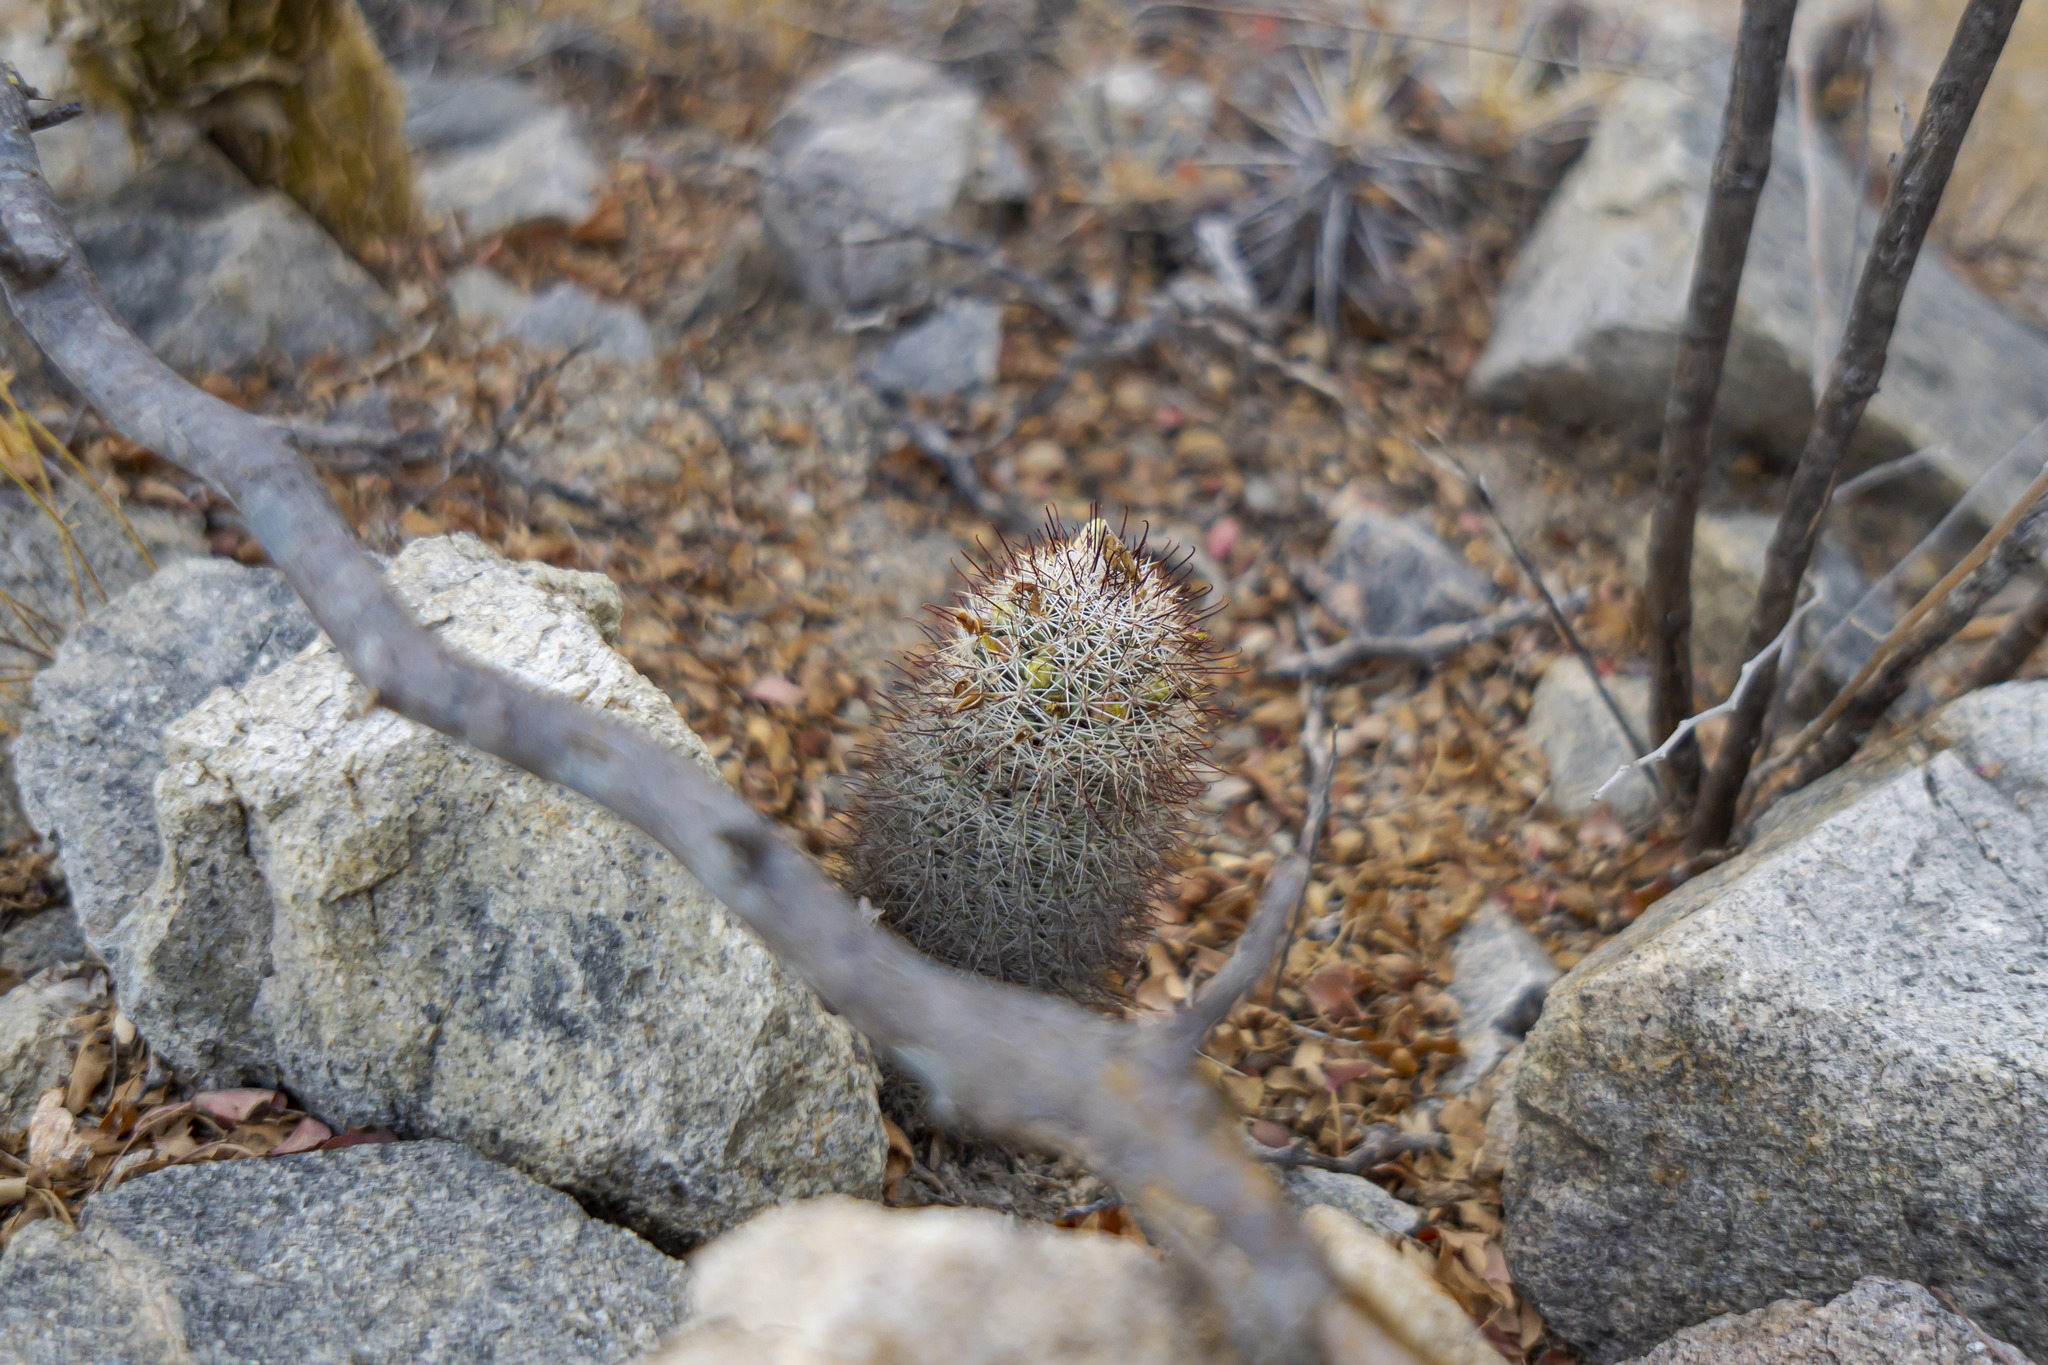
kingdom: Plantae
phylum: Tracheophyta
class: Magnoliopsida
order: Caryophyllales
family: Cactaceae
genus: Cochemiea
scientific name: Cochemiea armillata
